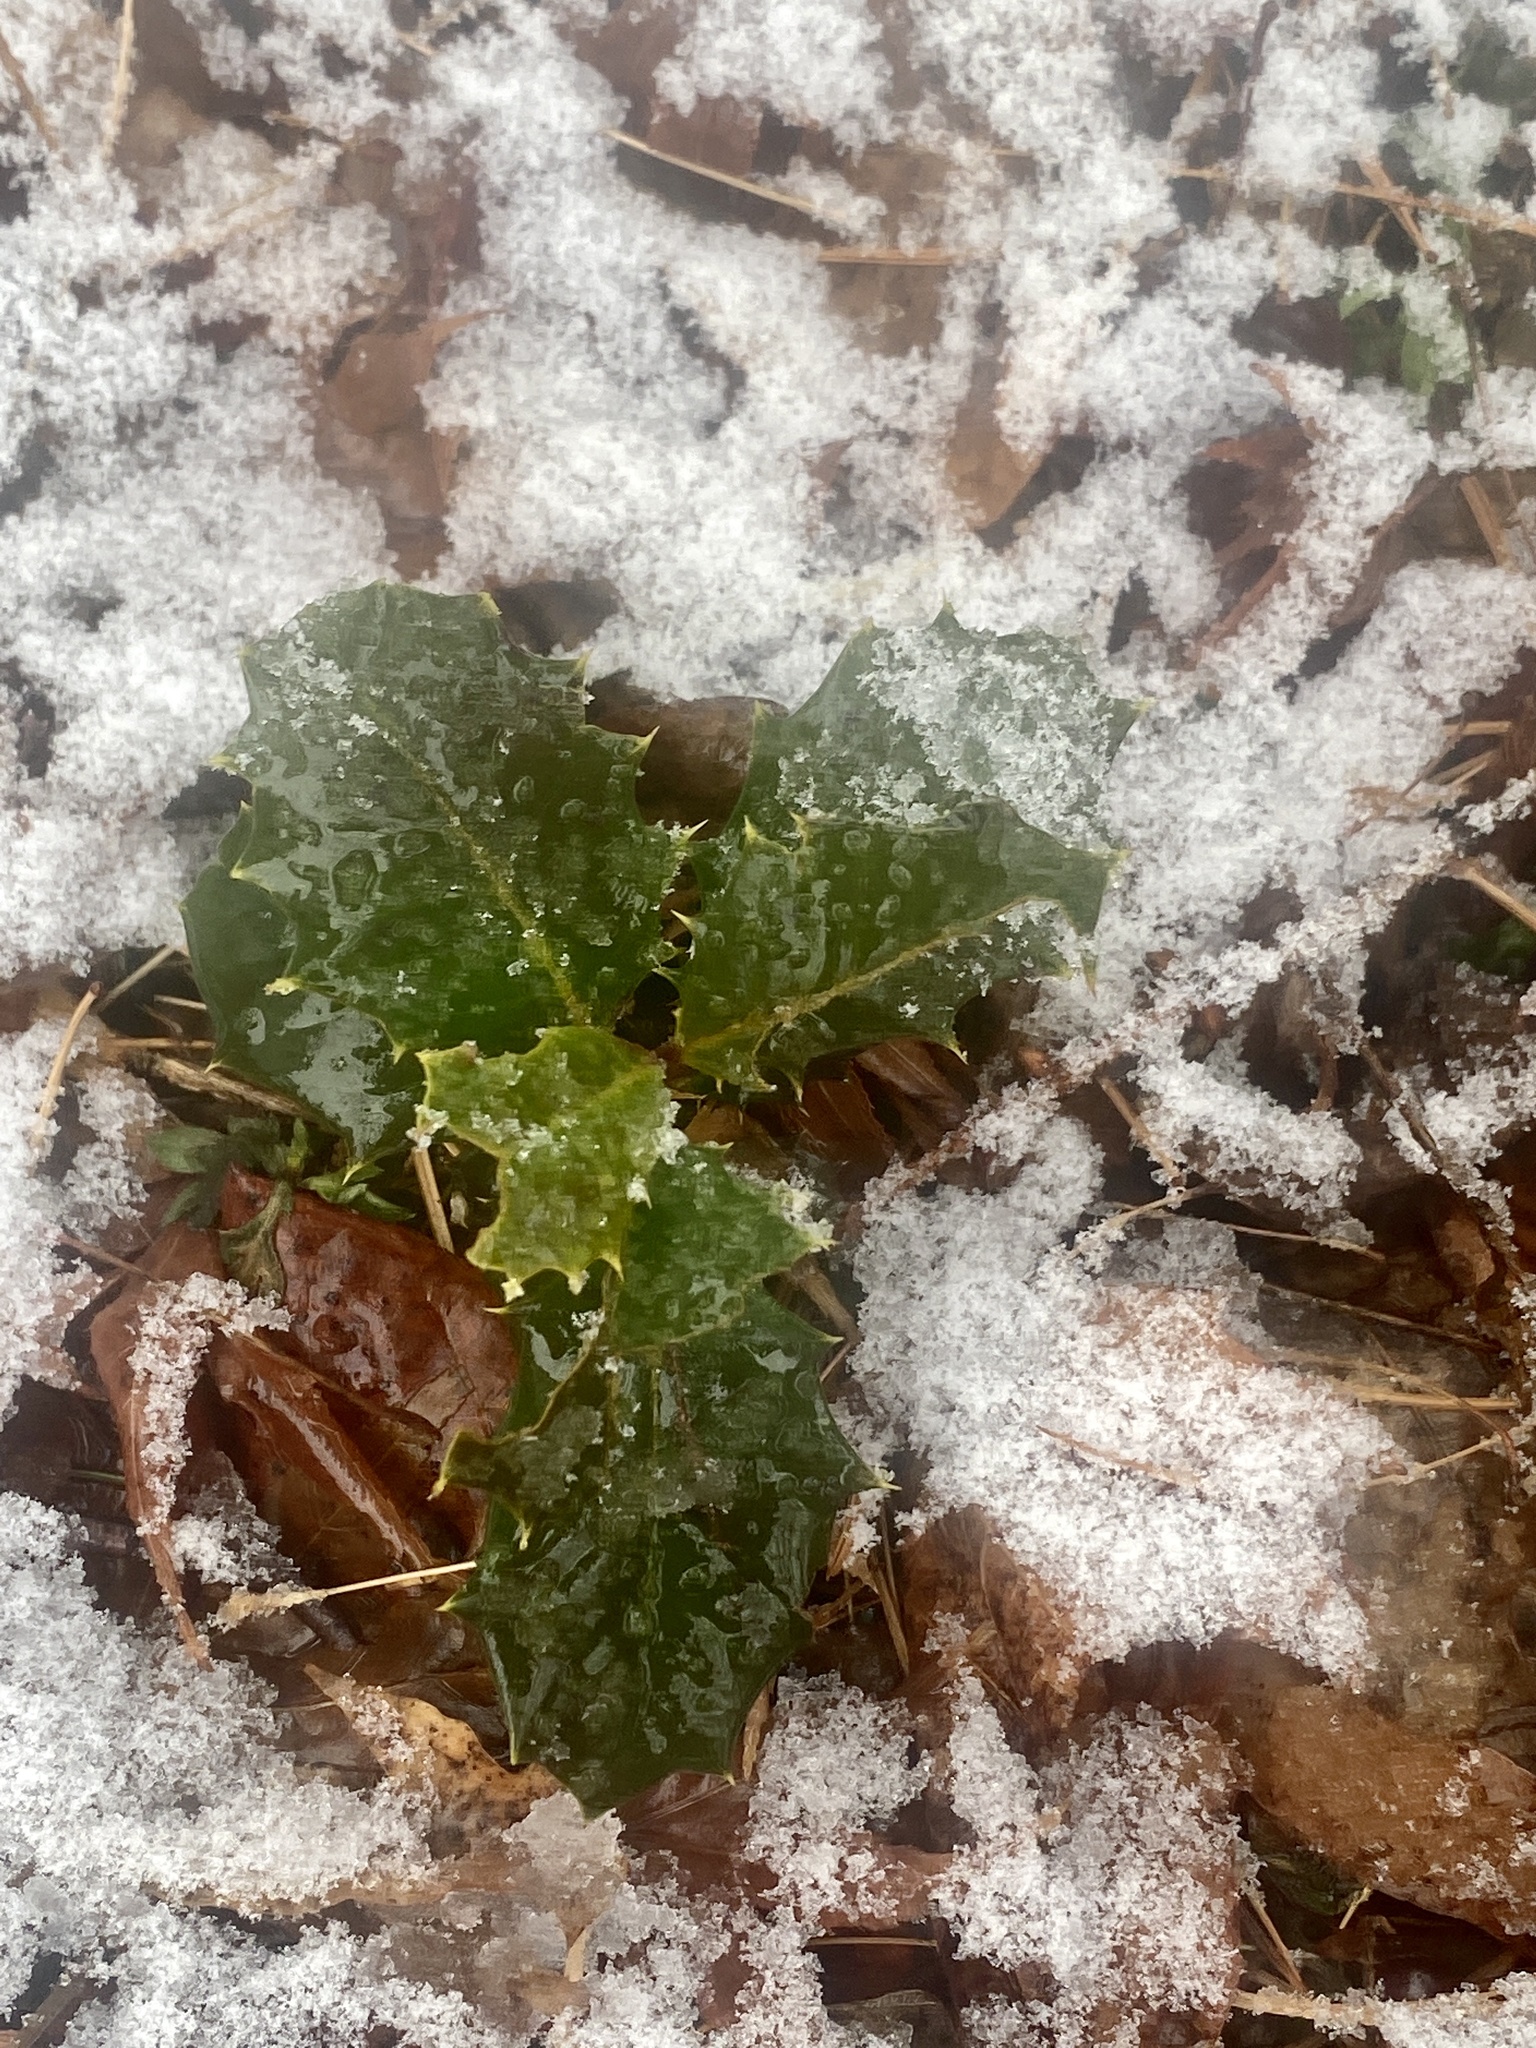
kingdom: Plantae
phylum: Tracheophyta
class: Magnoliopsida
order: Aquifoliales
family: Aquifoliaceae
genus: Ilex
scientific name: Ilex opaca
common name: American holly
